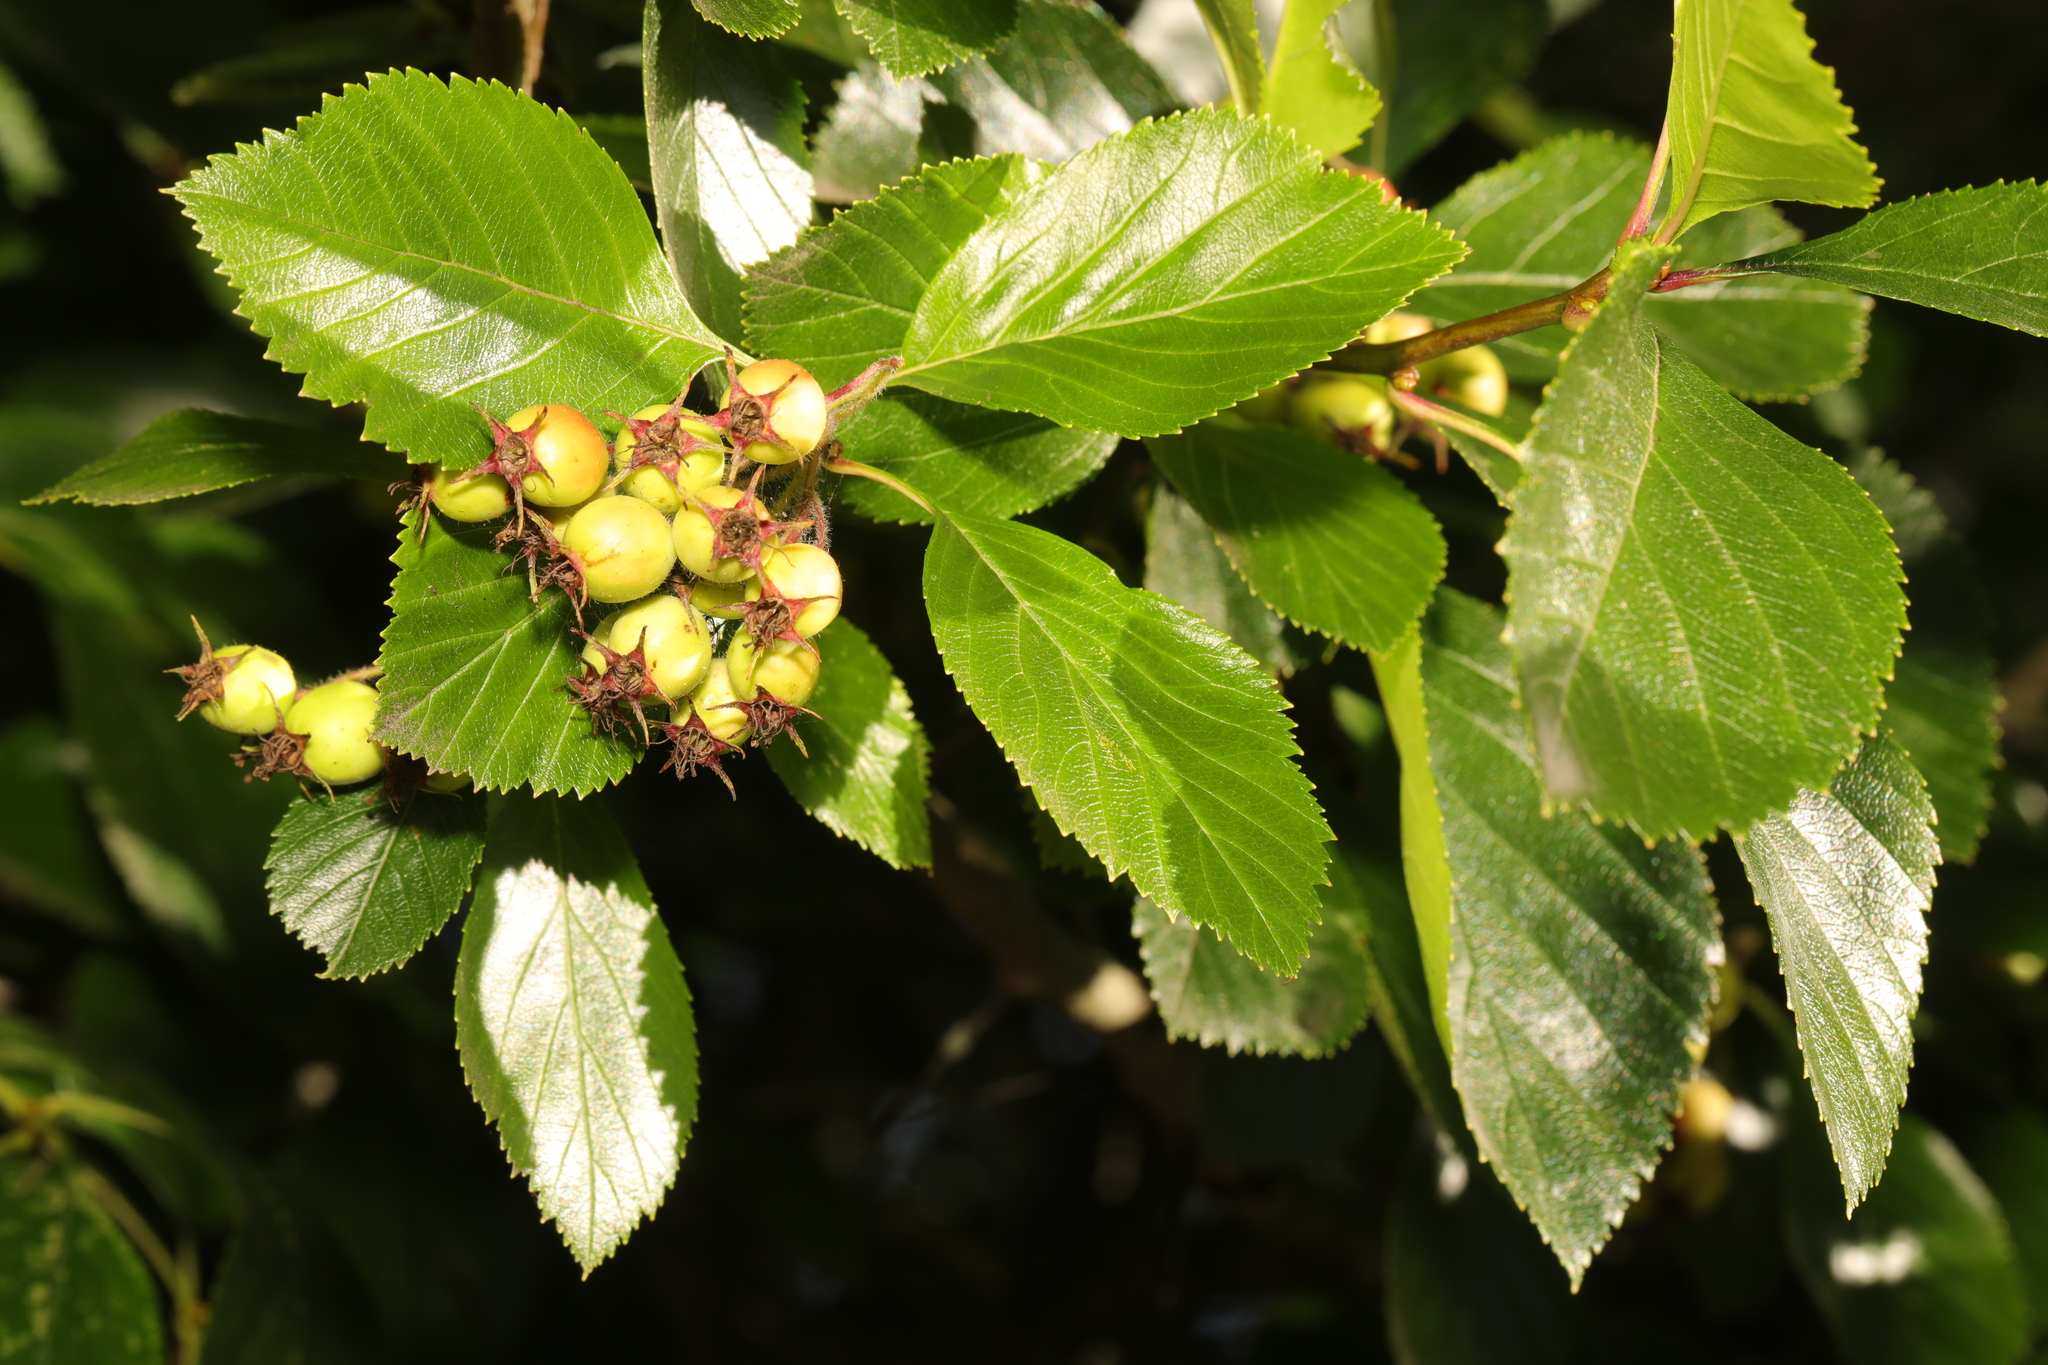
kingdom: Plantae
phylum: Tracheophyta
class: Magnoliopsida
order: Rosales
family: Rosaceae
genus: Crataegus
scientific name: Crataegus persimilis
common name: Broad-leaved cockspurthorn
